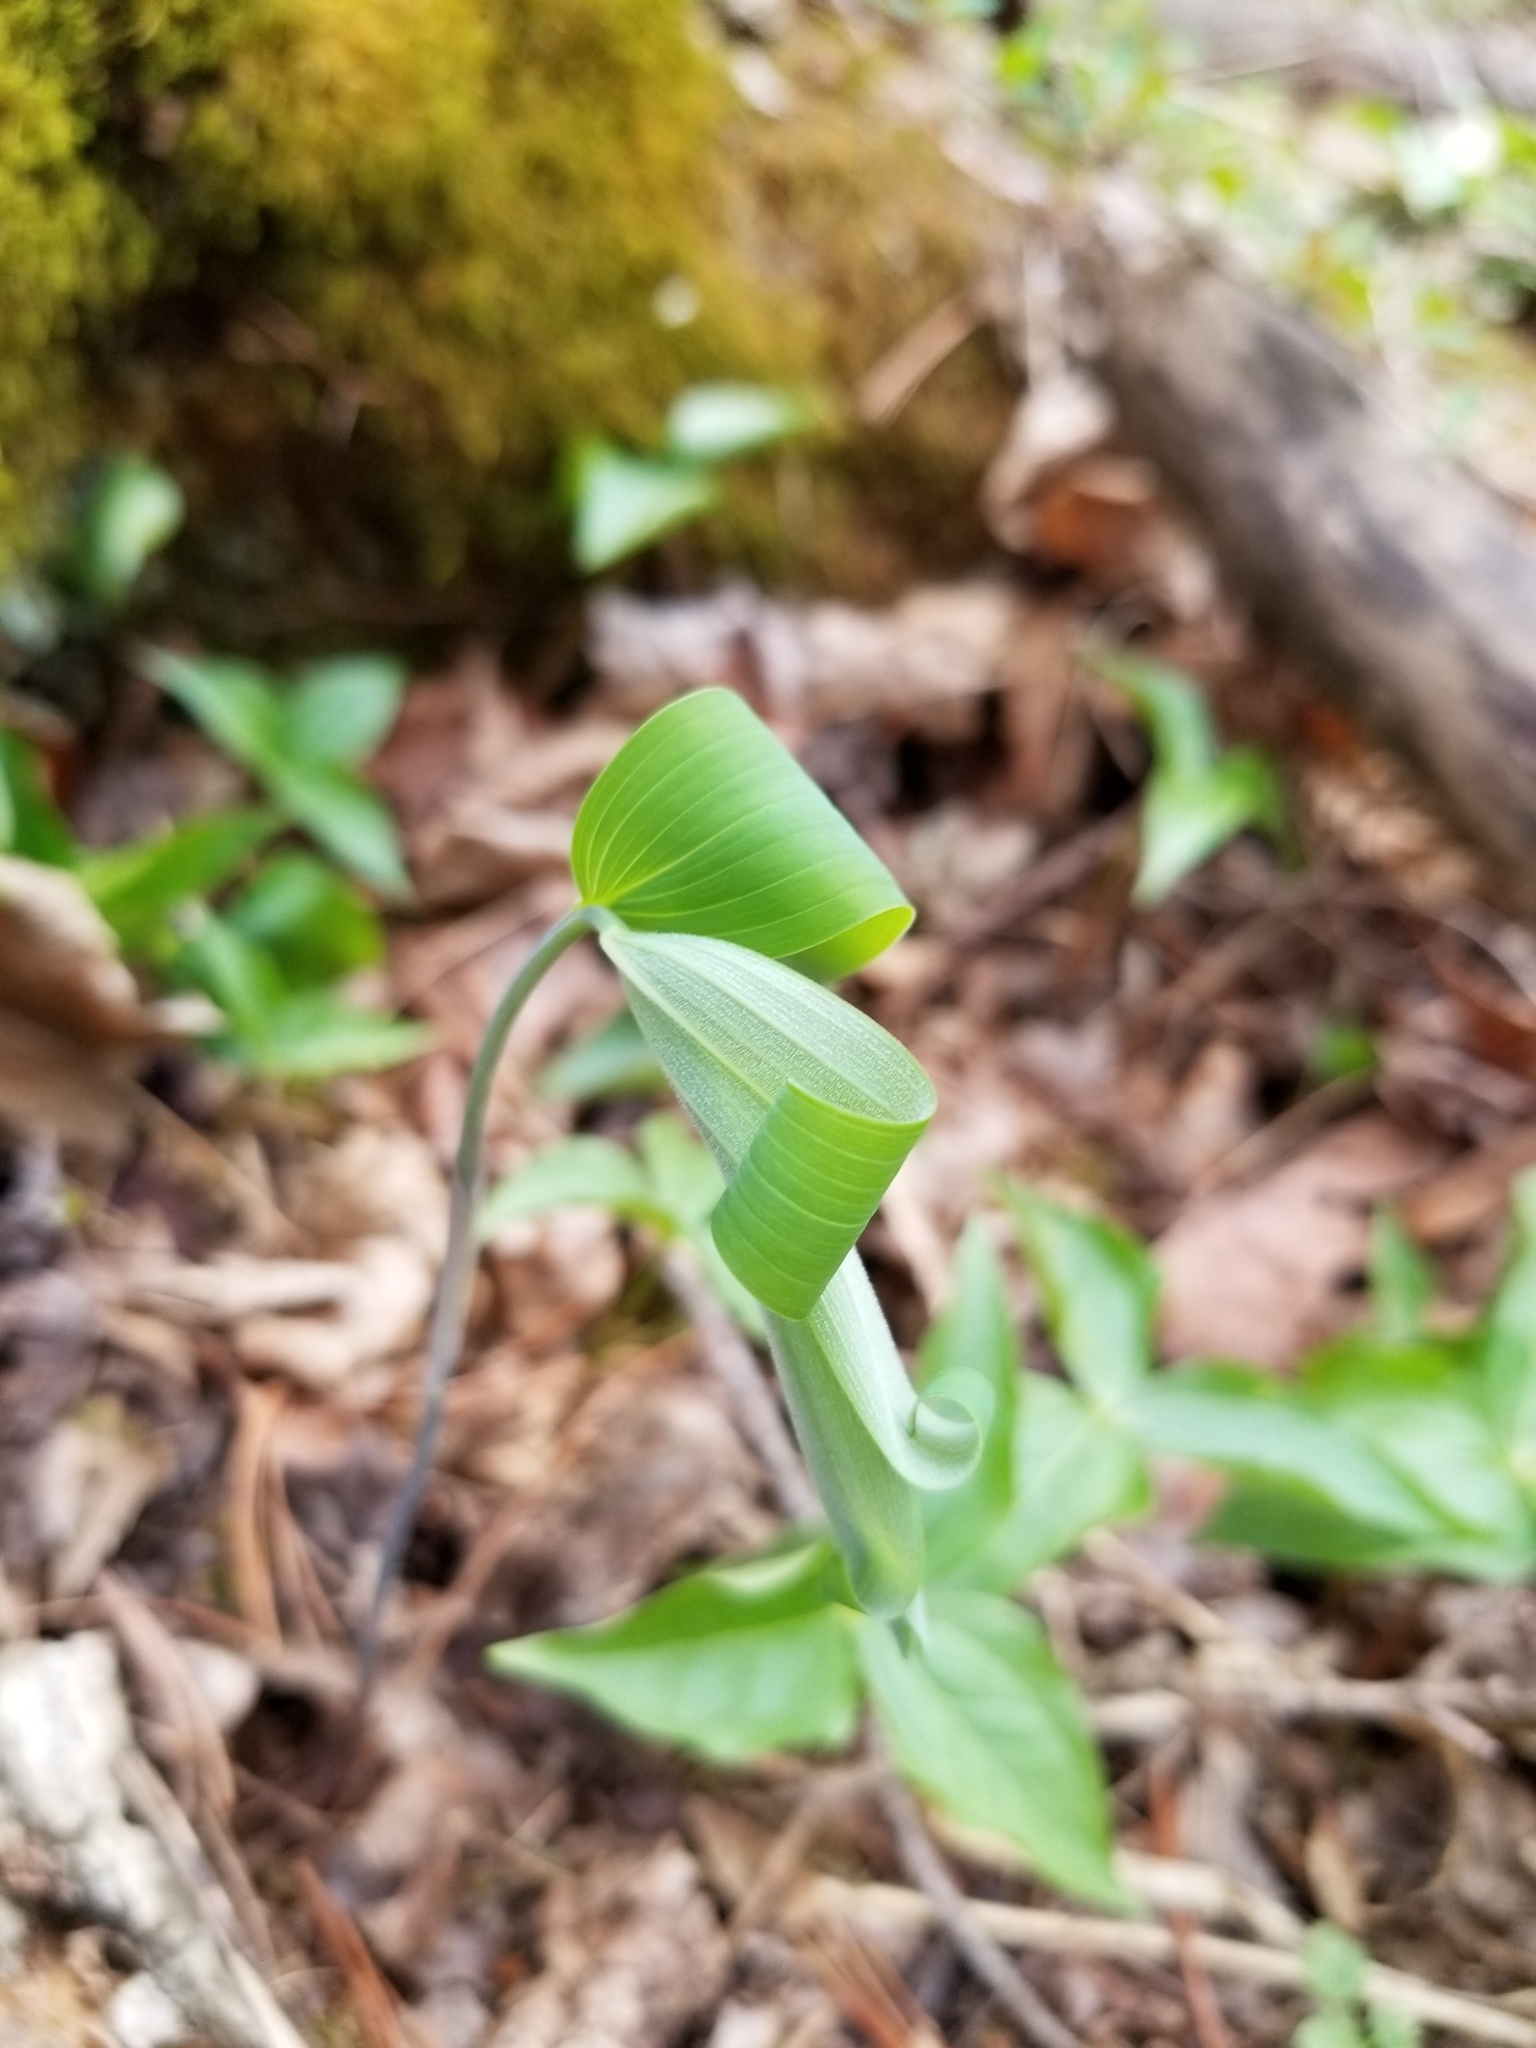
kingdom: Plantae
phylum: Tracheophyta
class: Liliopsida
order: Asparagales
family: Asparagaceae
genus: Polygonatum
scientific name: Polygonatum pubescens
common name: Downy solomon's seal
